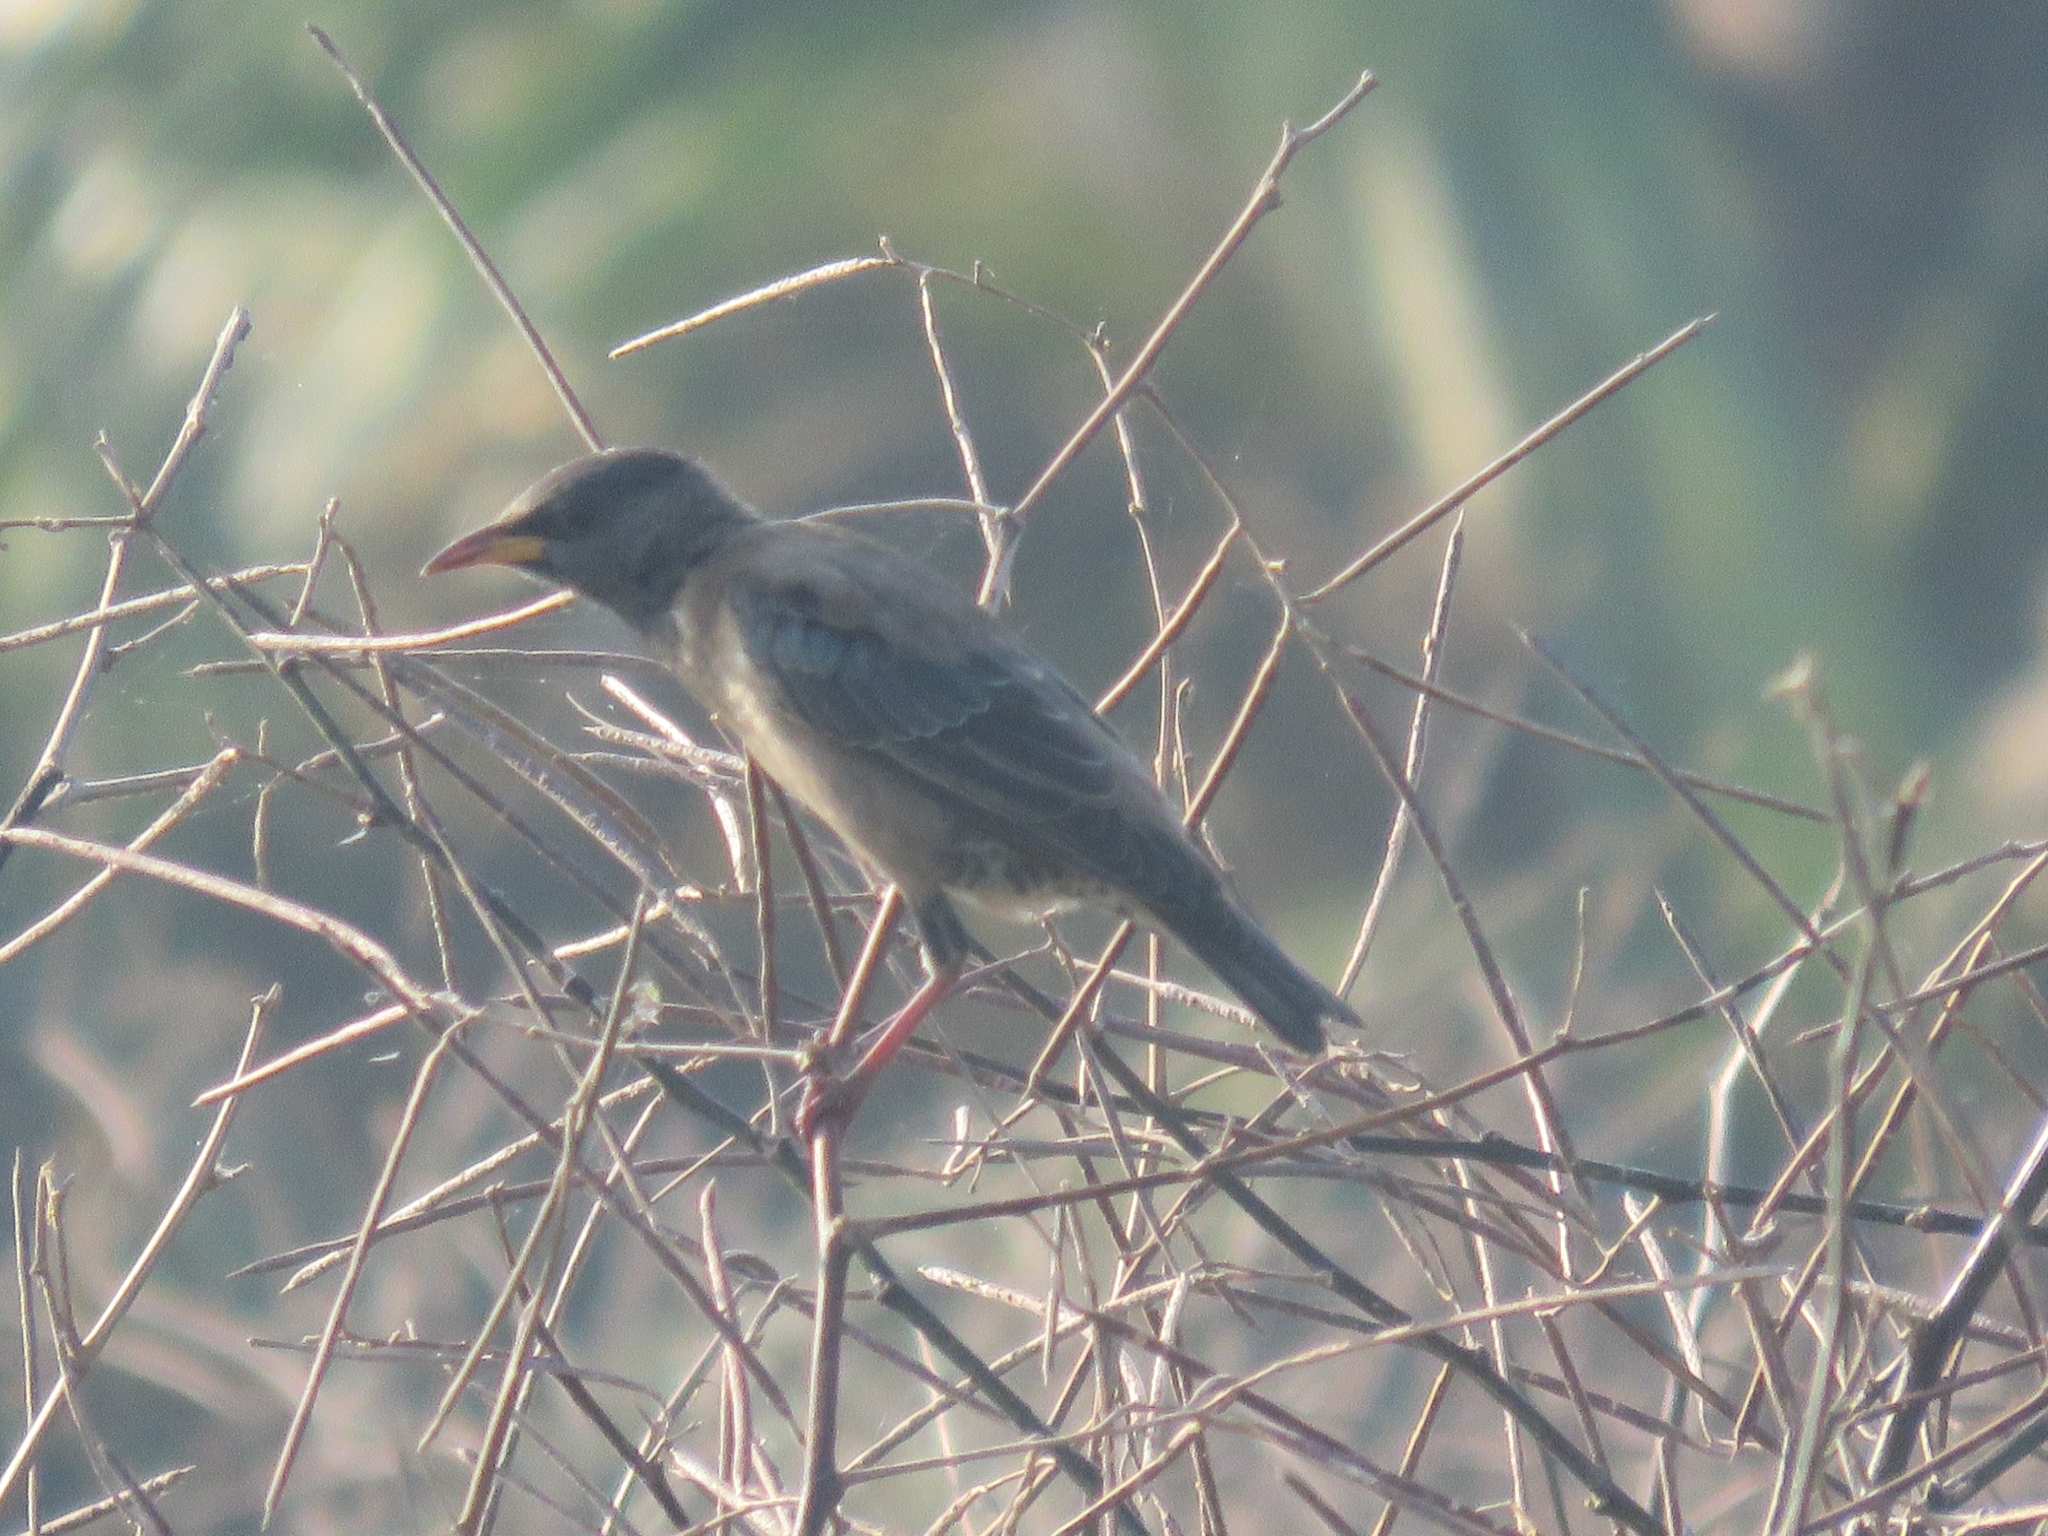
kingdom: Animalia
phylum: Chordata
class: Aves
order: Passeriformes
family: Sturnidae
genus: Pastor
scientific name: Pastor roseus
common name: Rosy starling
